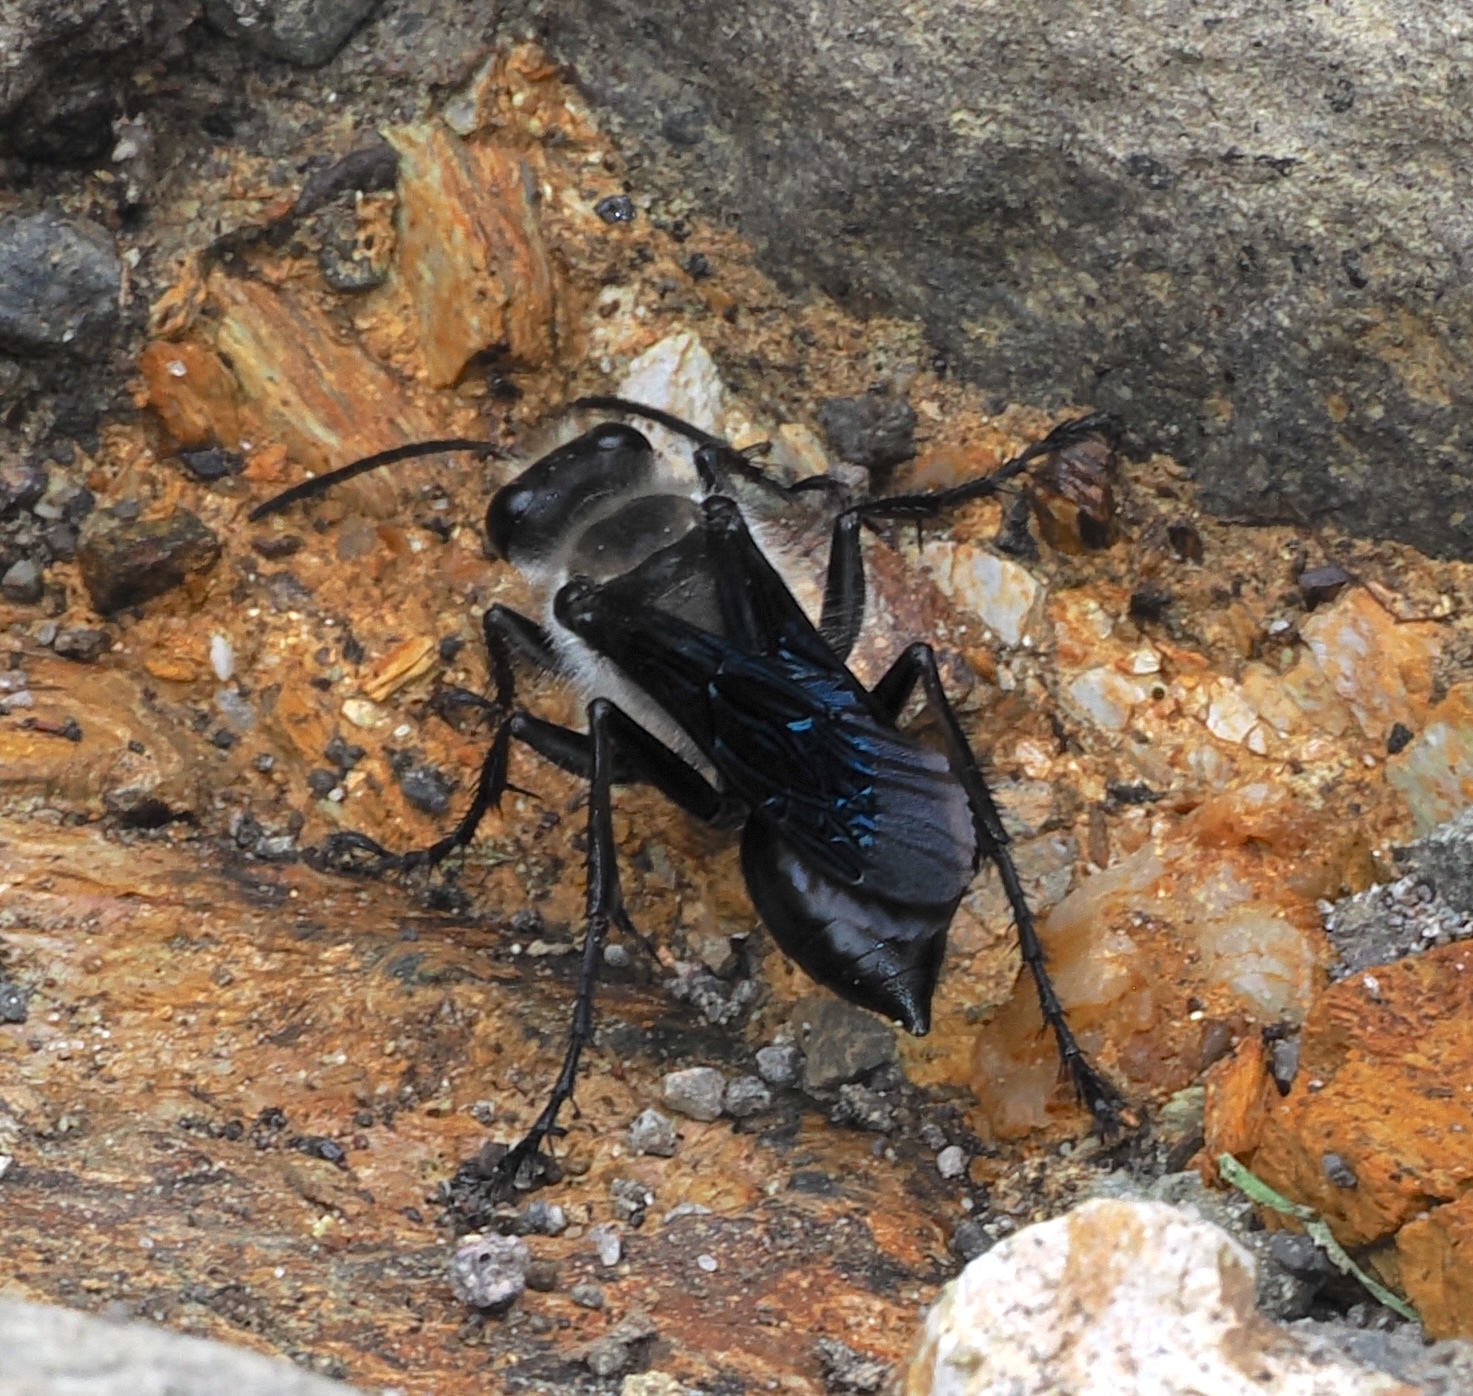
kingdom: Animalia
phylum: Arthropoda
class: Insecta
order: Hymenoptera
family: Sphecidae
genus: Sphex
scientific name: Sphex prosper
